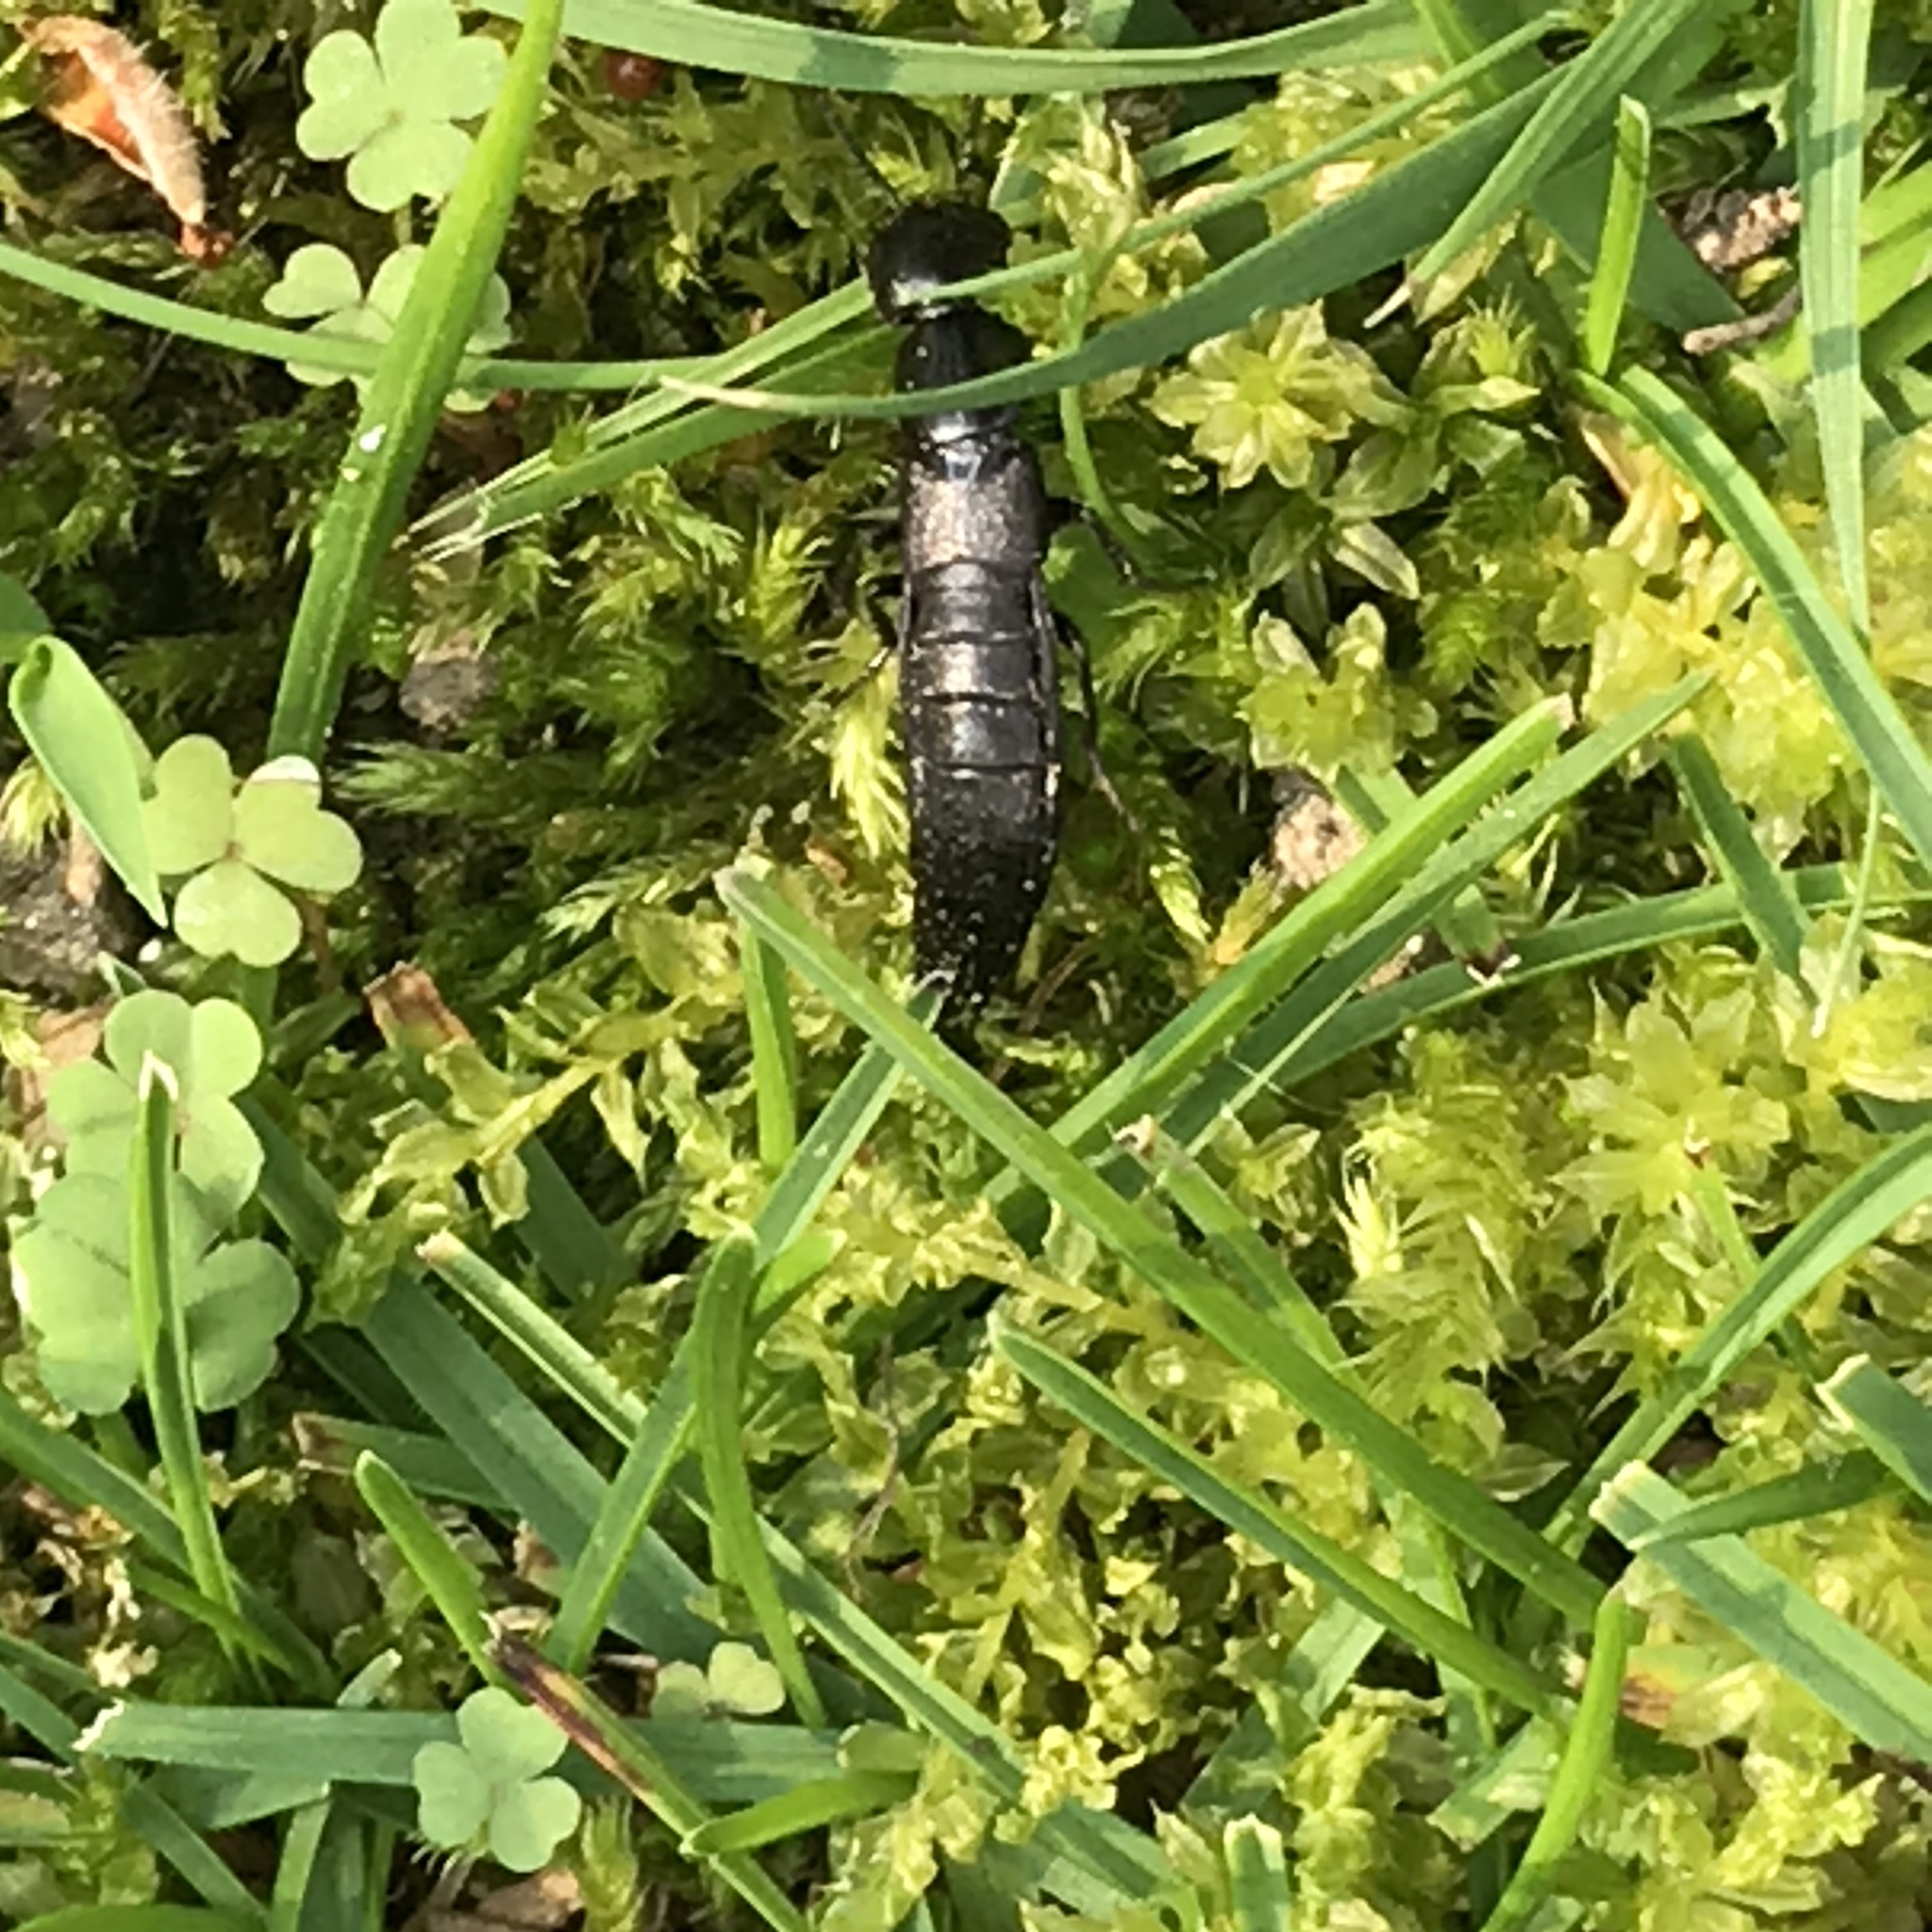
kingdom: Animalia
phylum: Arthropoda
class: Insecta
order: Coleoptera
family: Staphylinidae
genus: Ocypus
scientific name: Ocypus nitens
